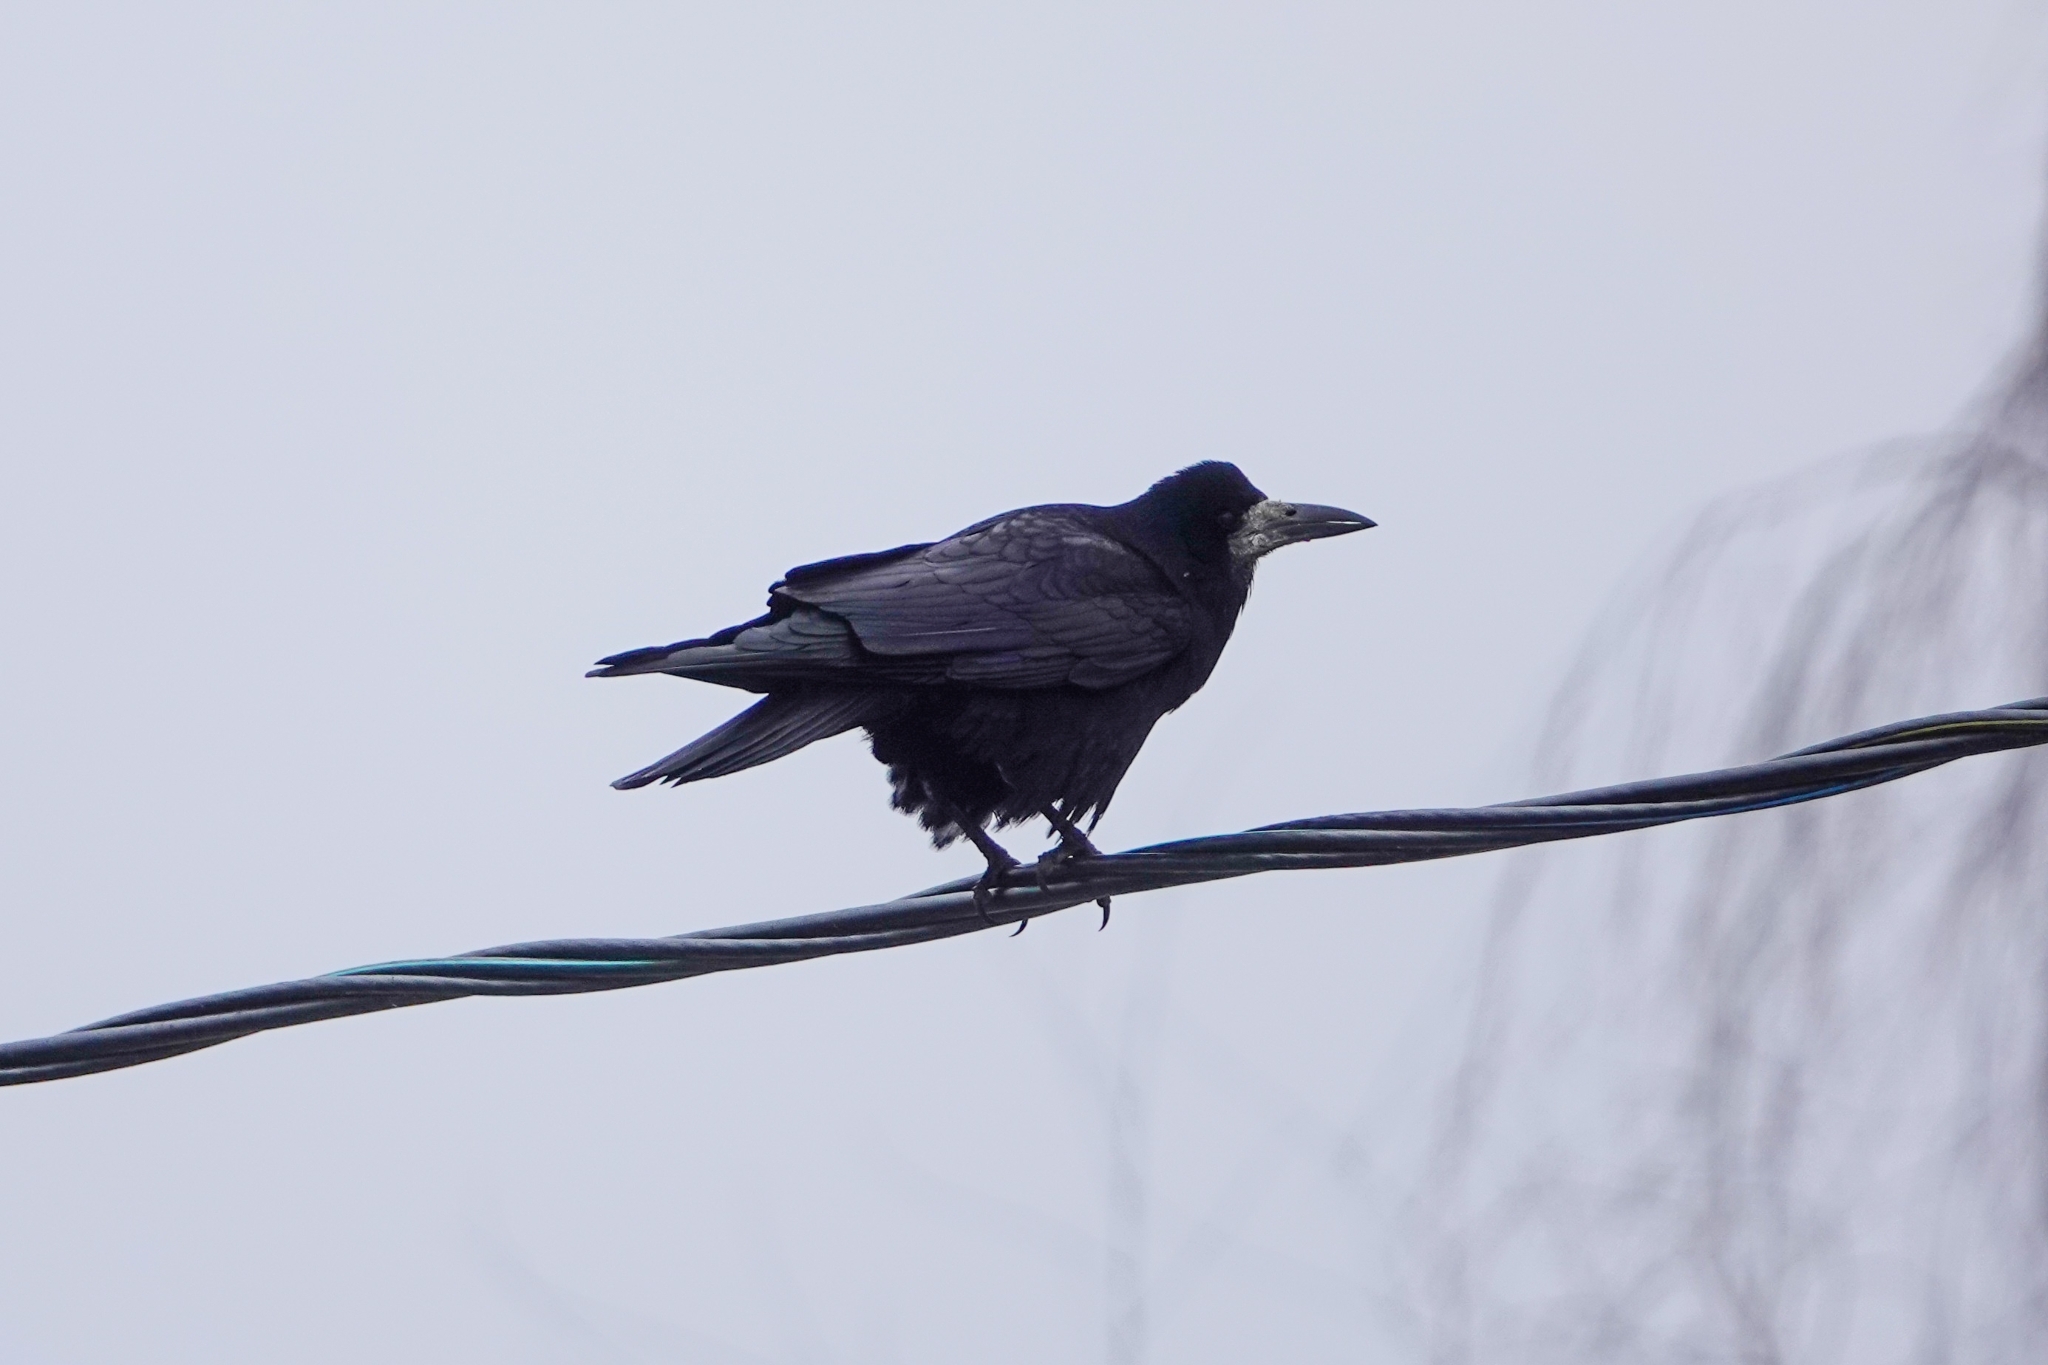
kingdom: Animalia
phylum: Chordata
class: Aves
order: Passeriformes
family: Corvidae
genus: Corvus
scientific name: Corvus frugilegus
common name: Rook
